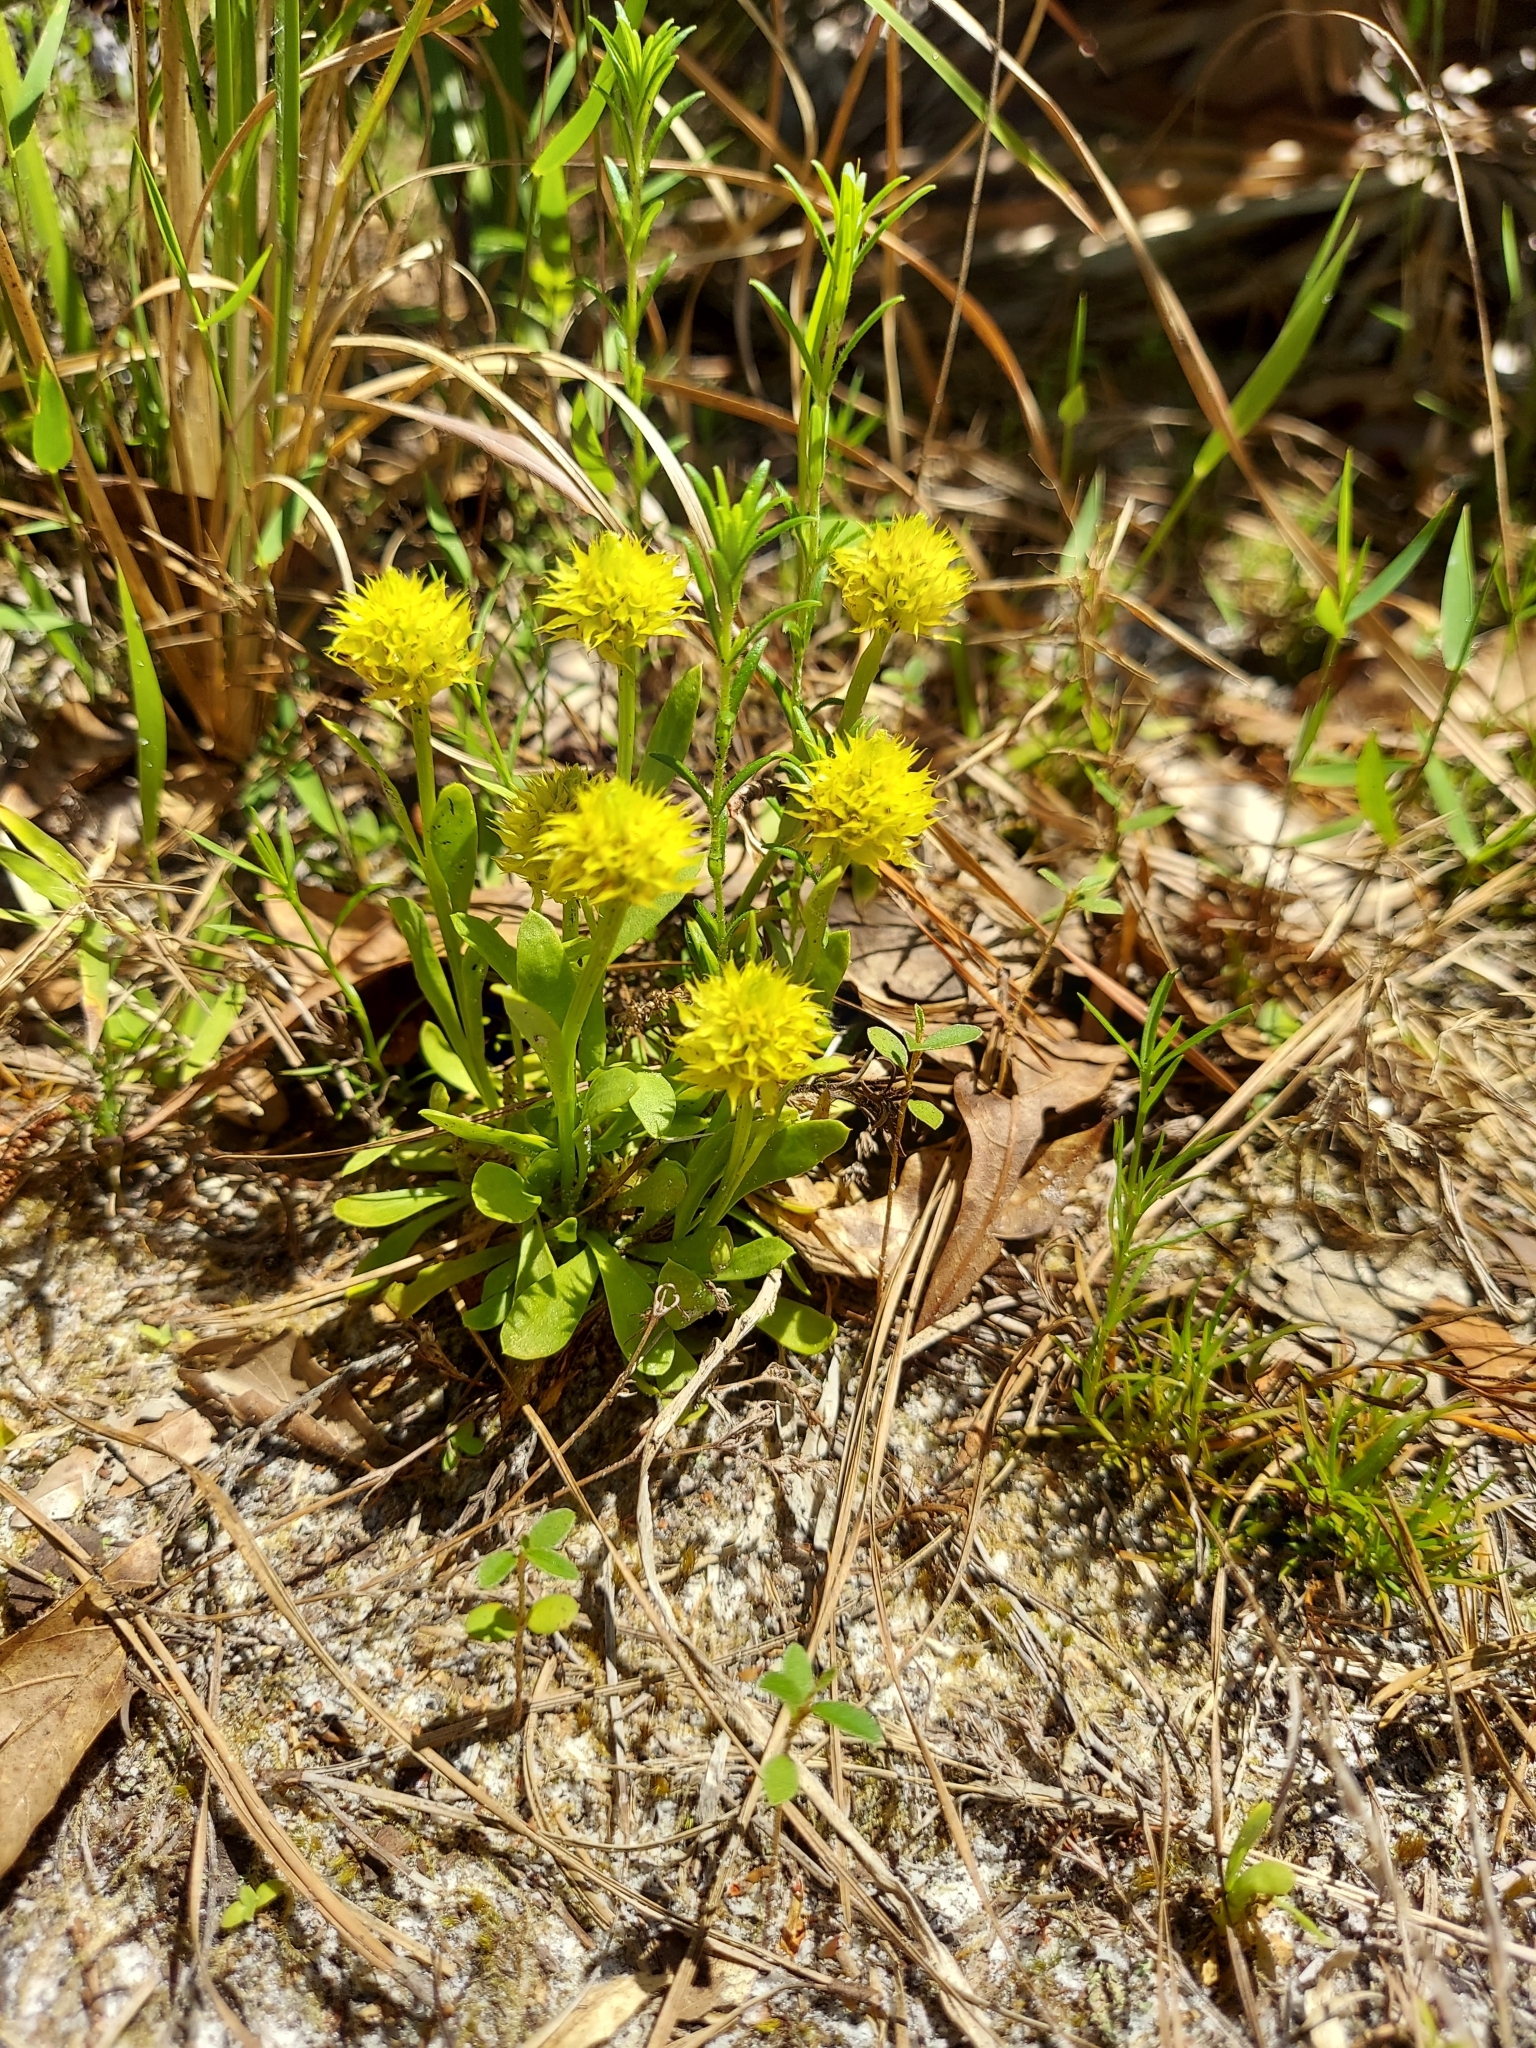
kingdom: Plantae
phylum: Tracheophyta
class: Magnoliopsida
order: Fabales
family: Polygalaceae
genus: Polygala
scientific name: Polygala nana
